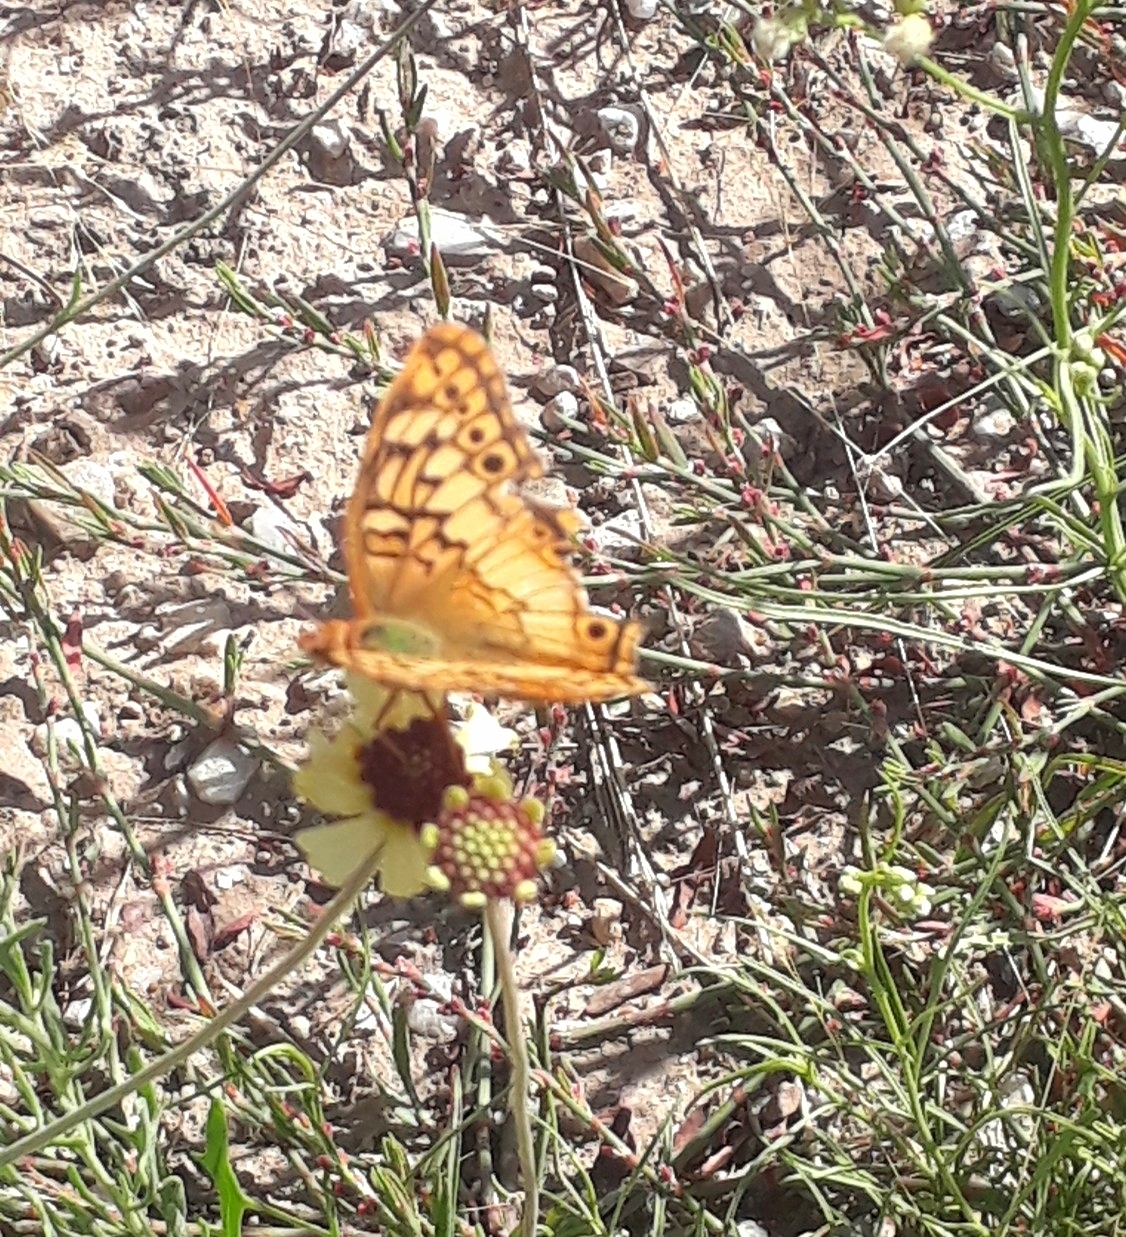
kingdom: Animalia
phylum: Arthropoda
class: Insecta
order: Lepidoptera
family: Nymphalidae
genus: Euptoieta
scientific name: Euptoieta hortensia
